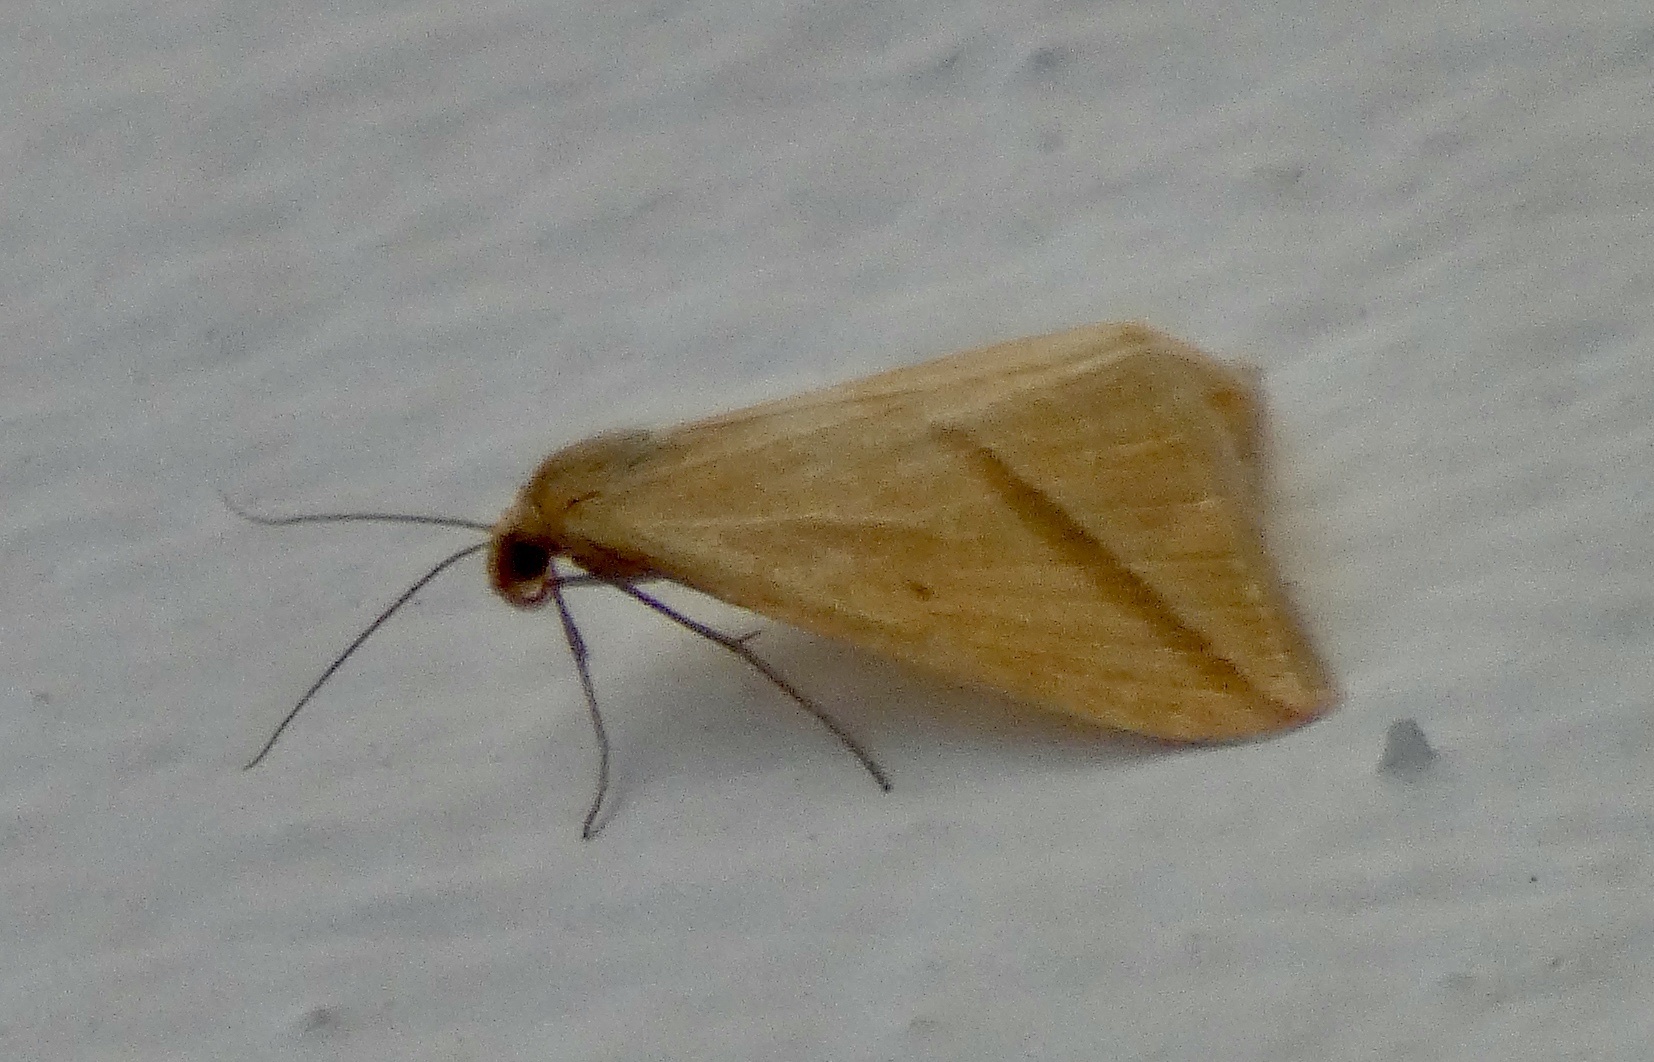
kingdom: Animalia
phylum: Arthropoda
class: Insecta
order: Lepidoptera
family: Geometridae
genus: Rhodometra
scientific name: Rhodometra sacraria
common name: Vestal
